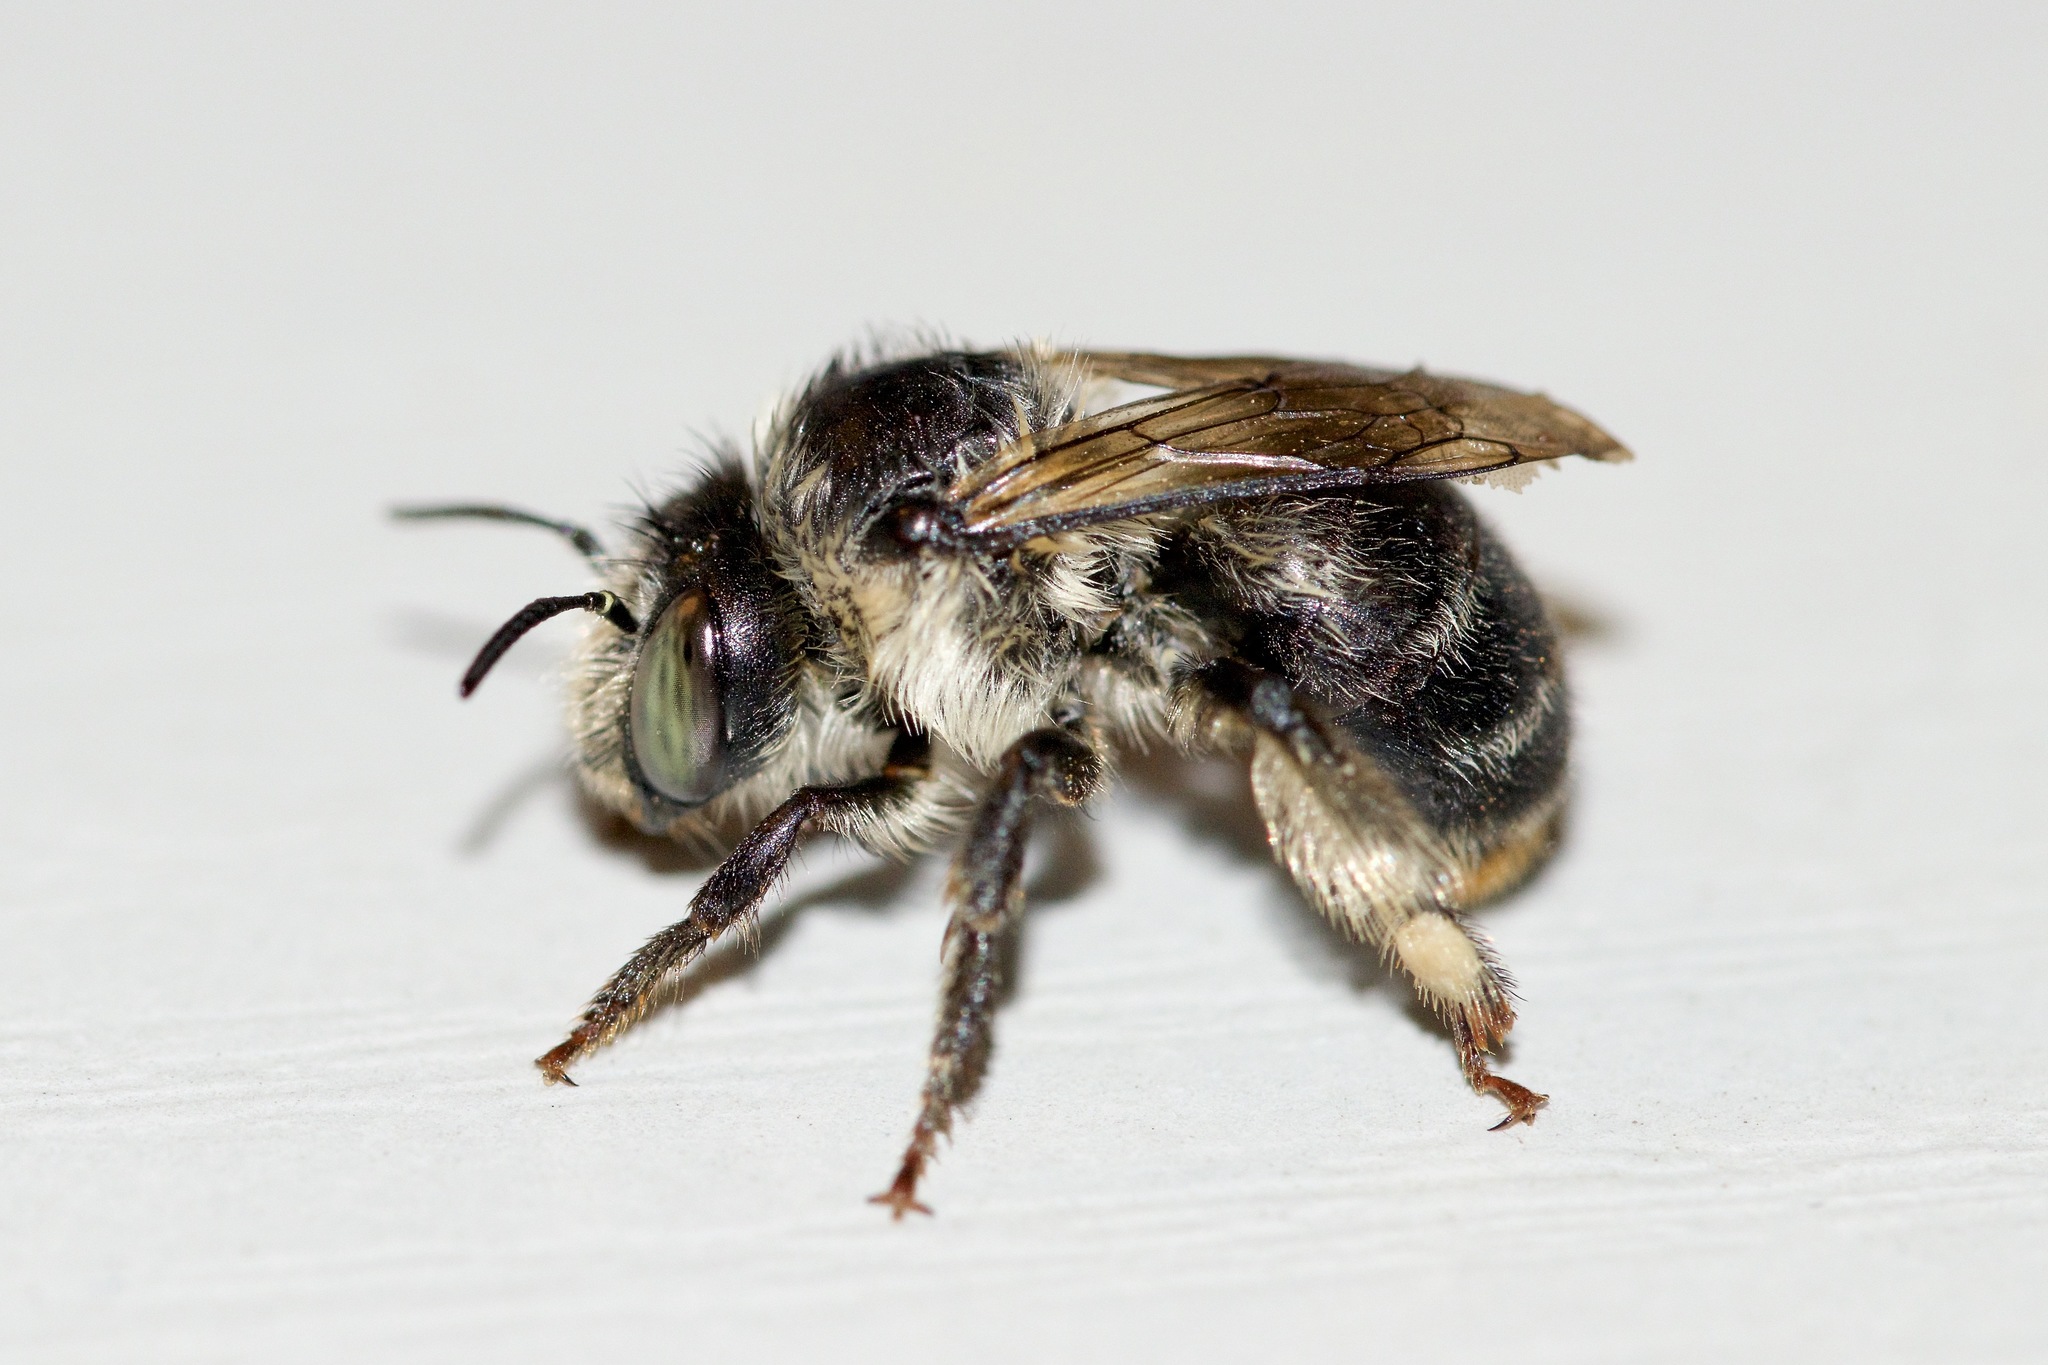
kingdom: Animalia
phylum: Arthropoda
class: Insecta
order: Hymenoptera
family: Apidae
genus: Anthophora
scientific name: Anthophora terminalis
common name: Orange-tipped wood-digger bee
